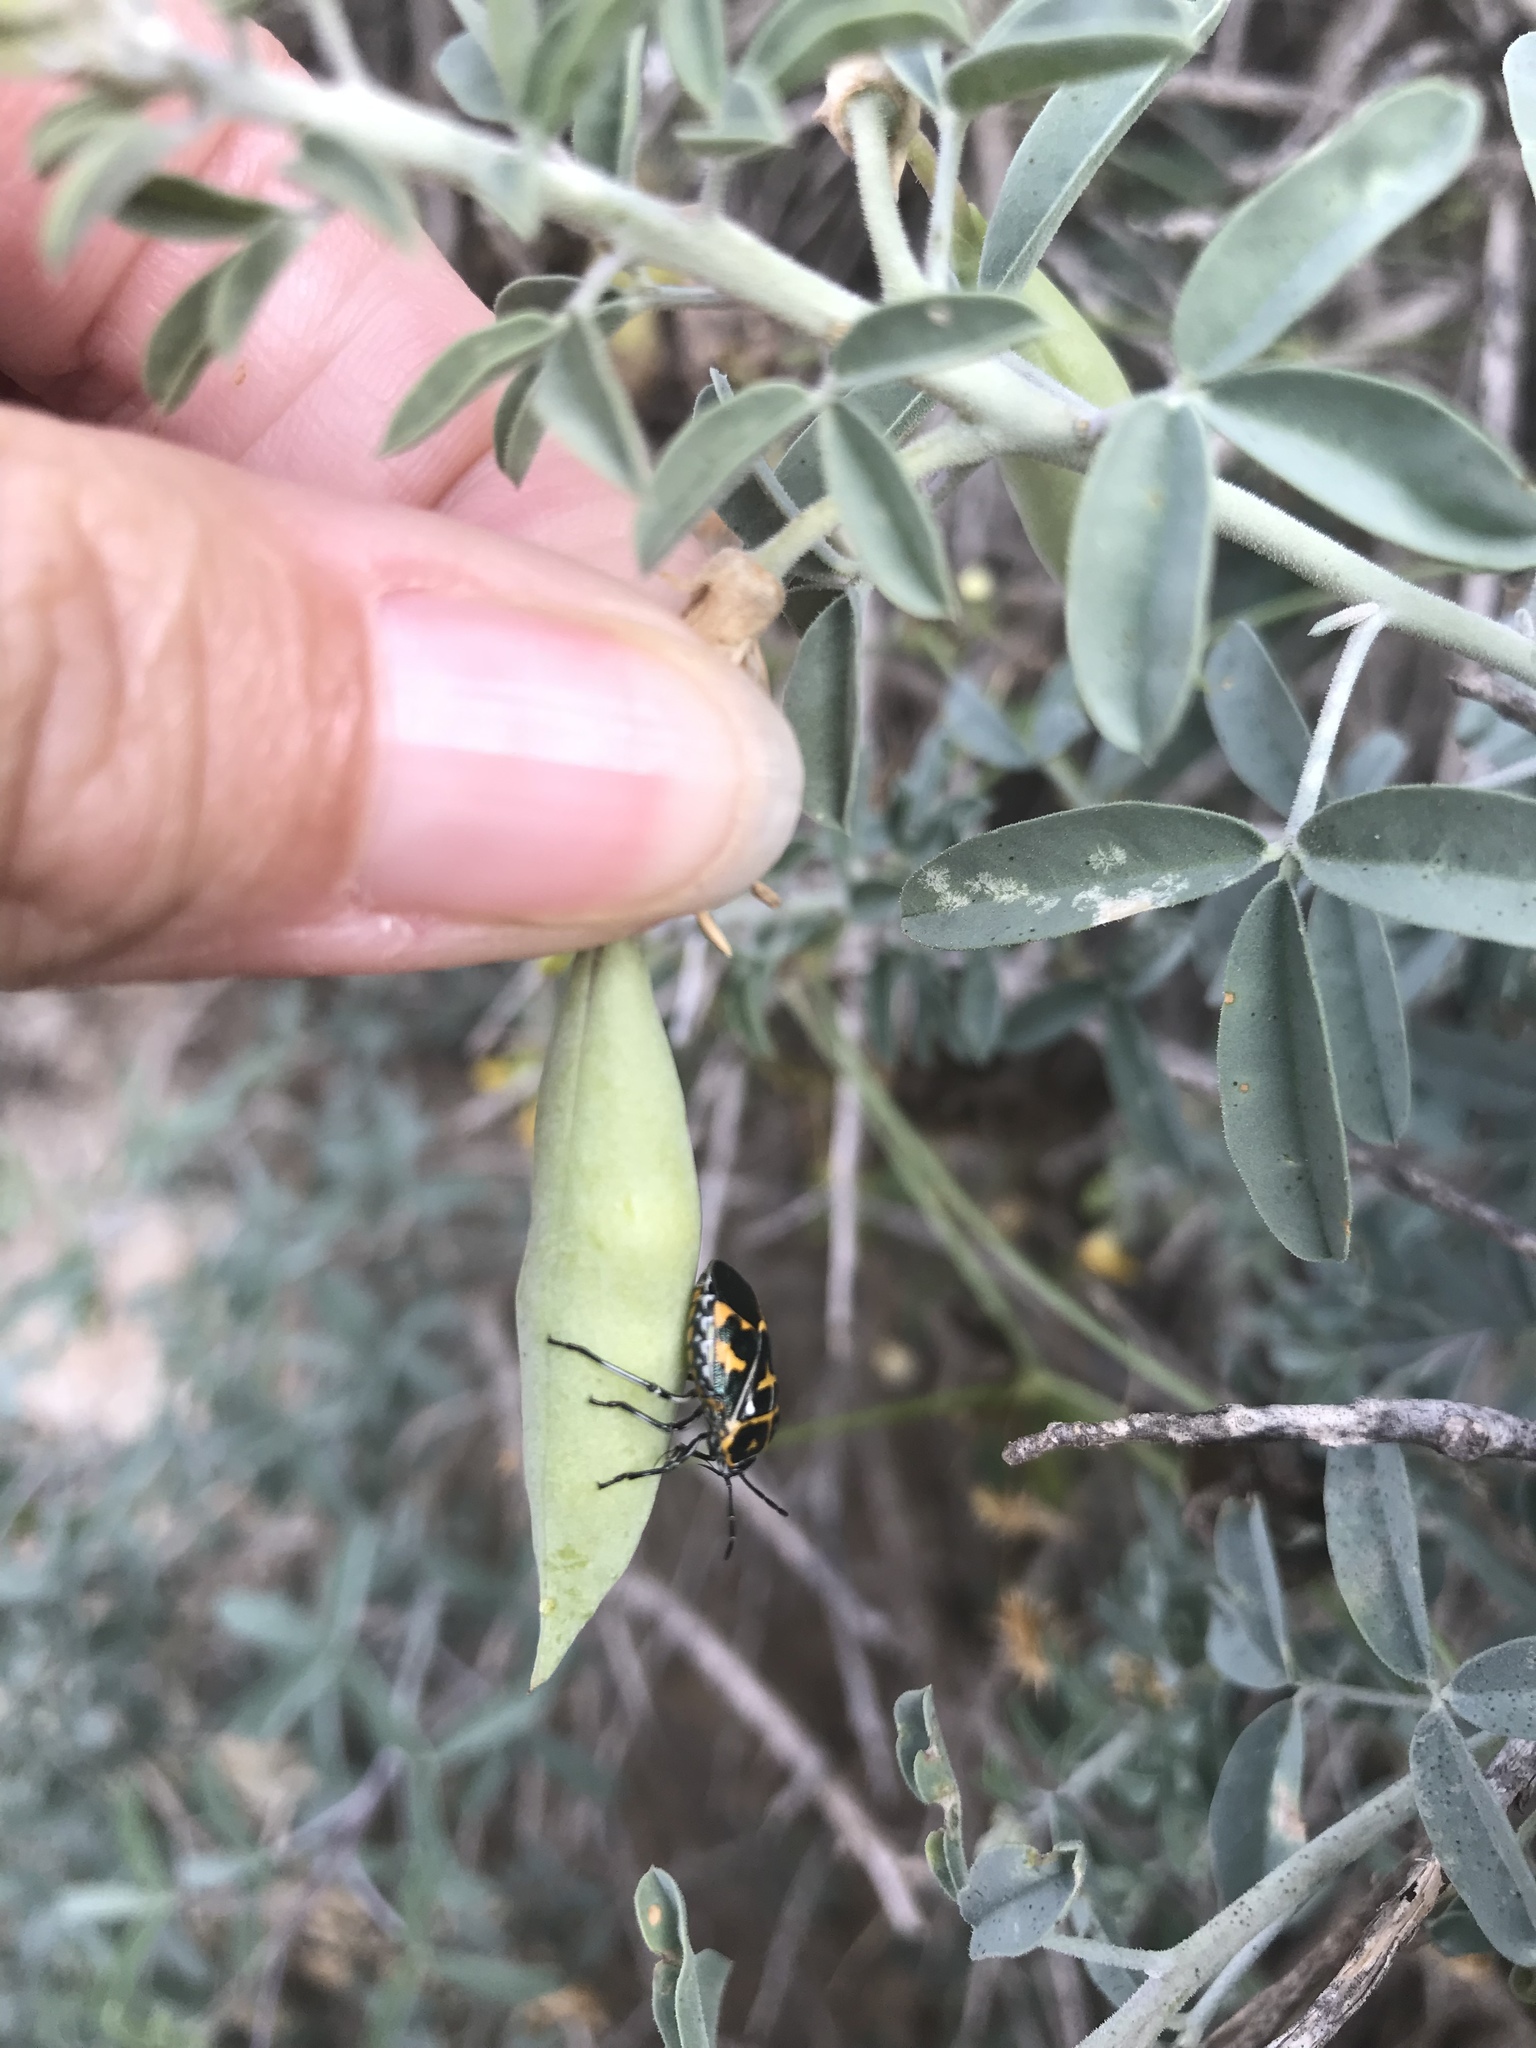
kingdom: Animalia
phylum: Arthropoda
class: Insecta
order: Hemiptera
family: Pentatomidae
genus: Murgantia
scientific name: Murgantia histrionica
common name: Harlequin bug
